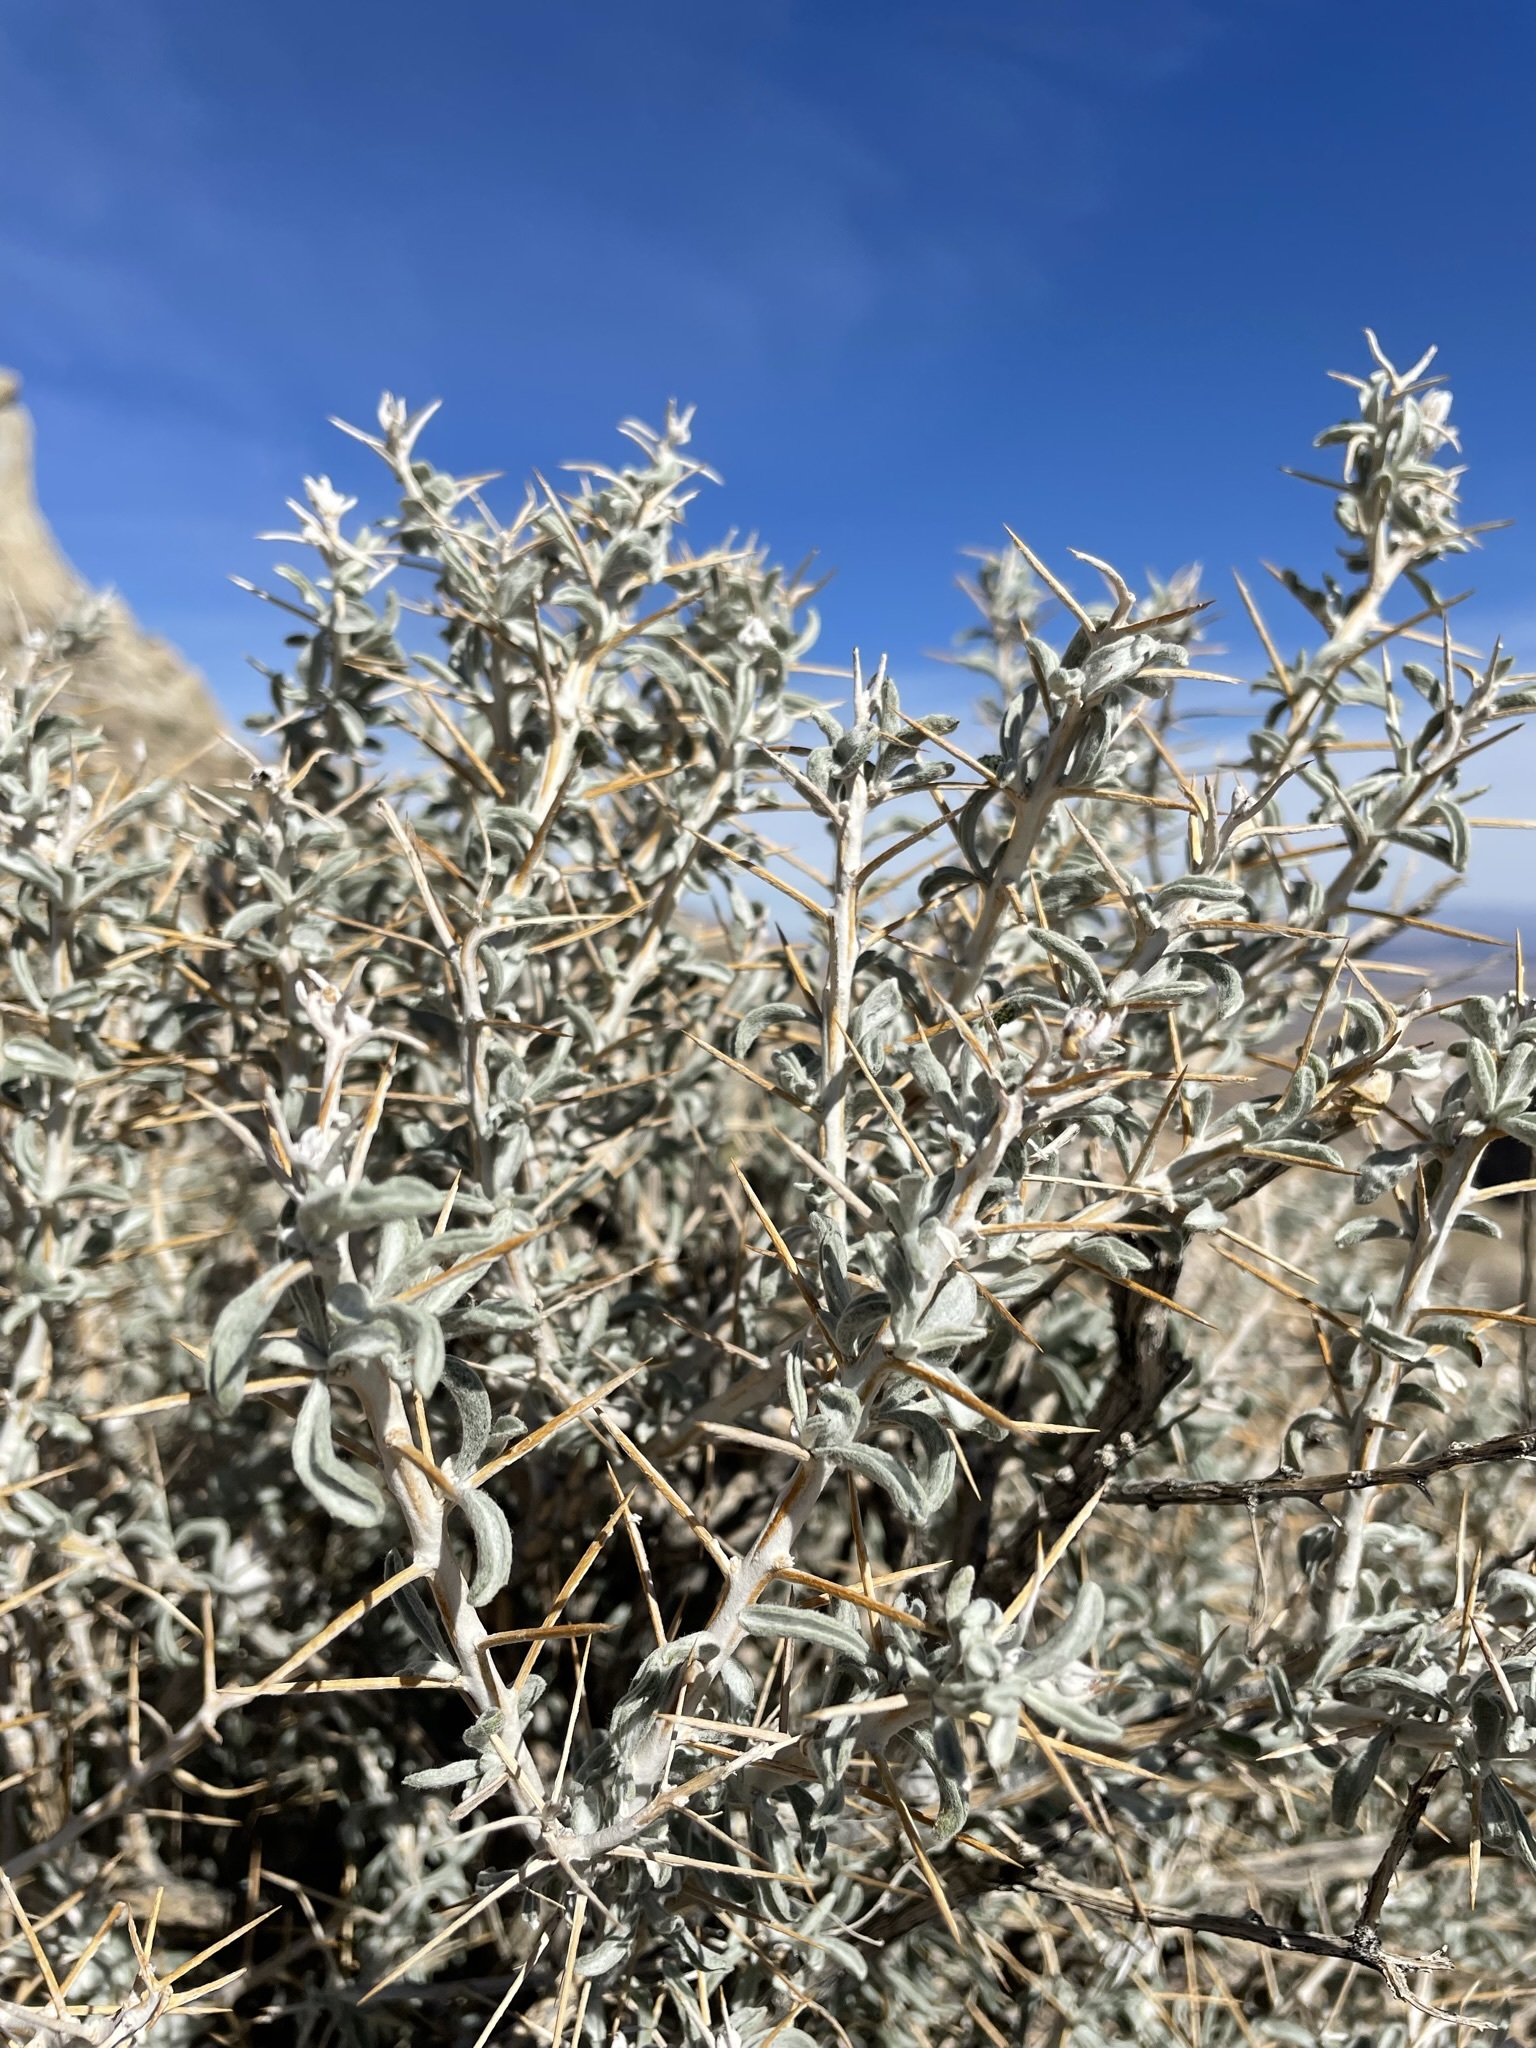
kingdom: Plantae
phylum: Tracheophyta
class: Magnoliopsida
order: Asterales
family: Asteraceae
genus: Tetradymia
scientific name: Tetradymia stenolepis
